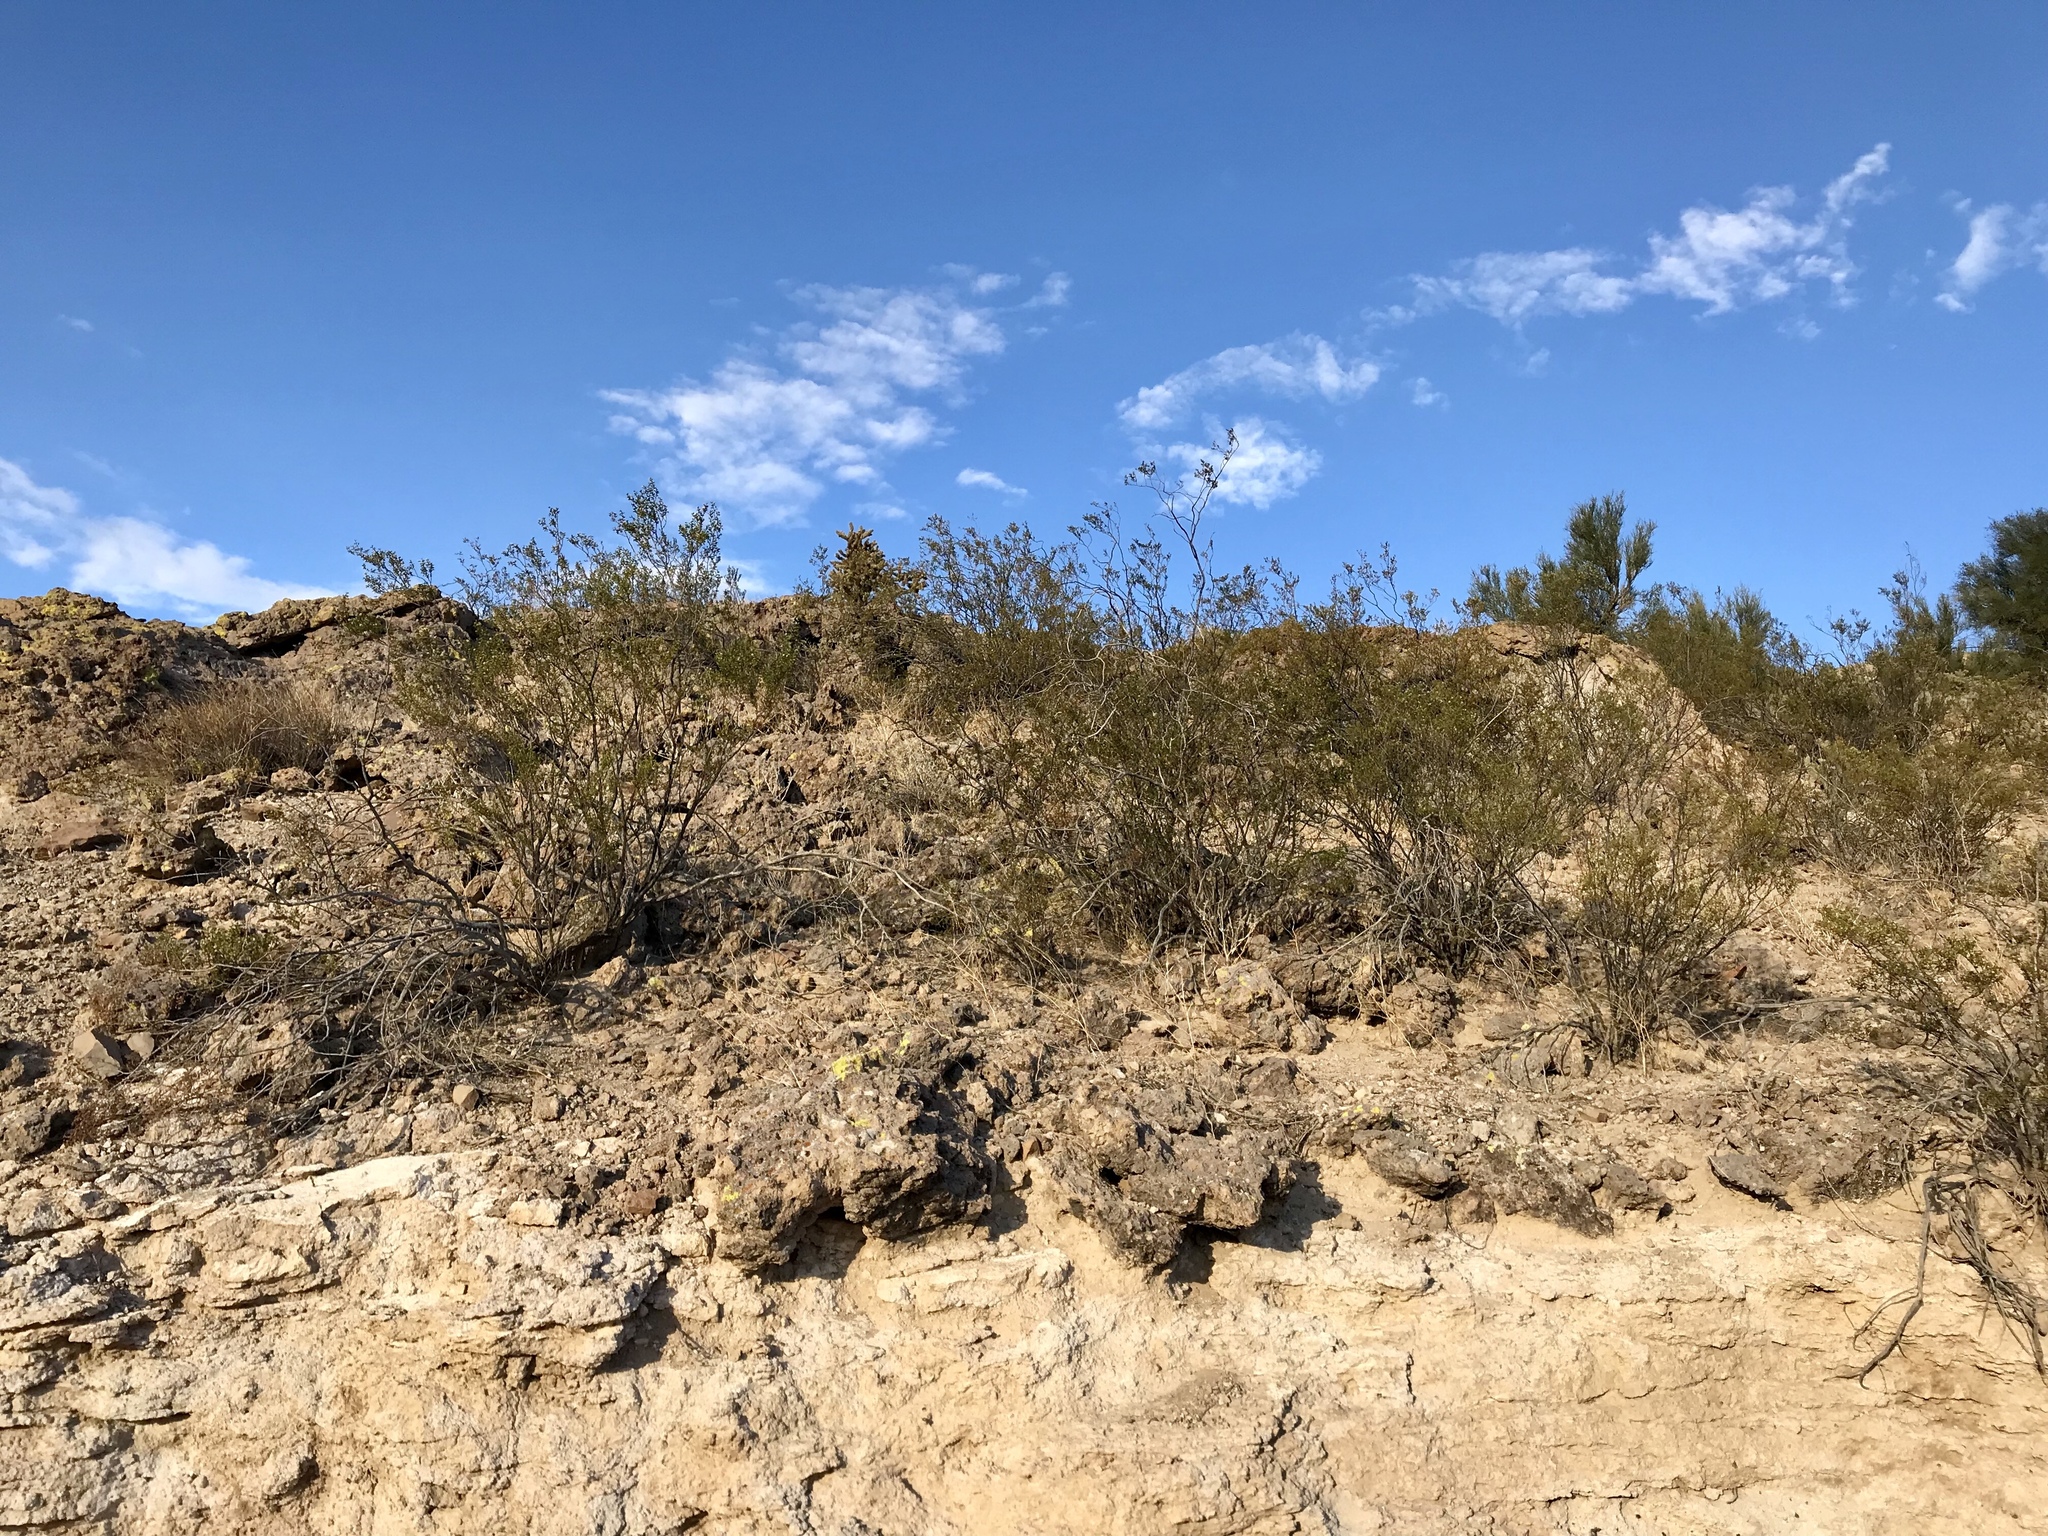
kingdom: Plantae
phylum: Tracheophyta
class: Magnoliopsida
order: Zygophyllales
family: Zygophyllaceae
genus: Larrea
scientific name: Larrea tridentata
